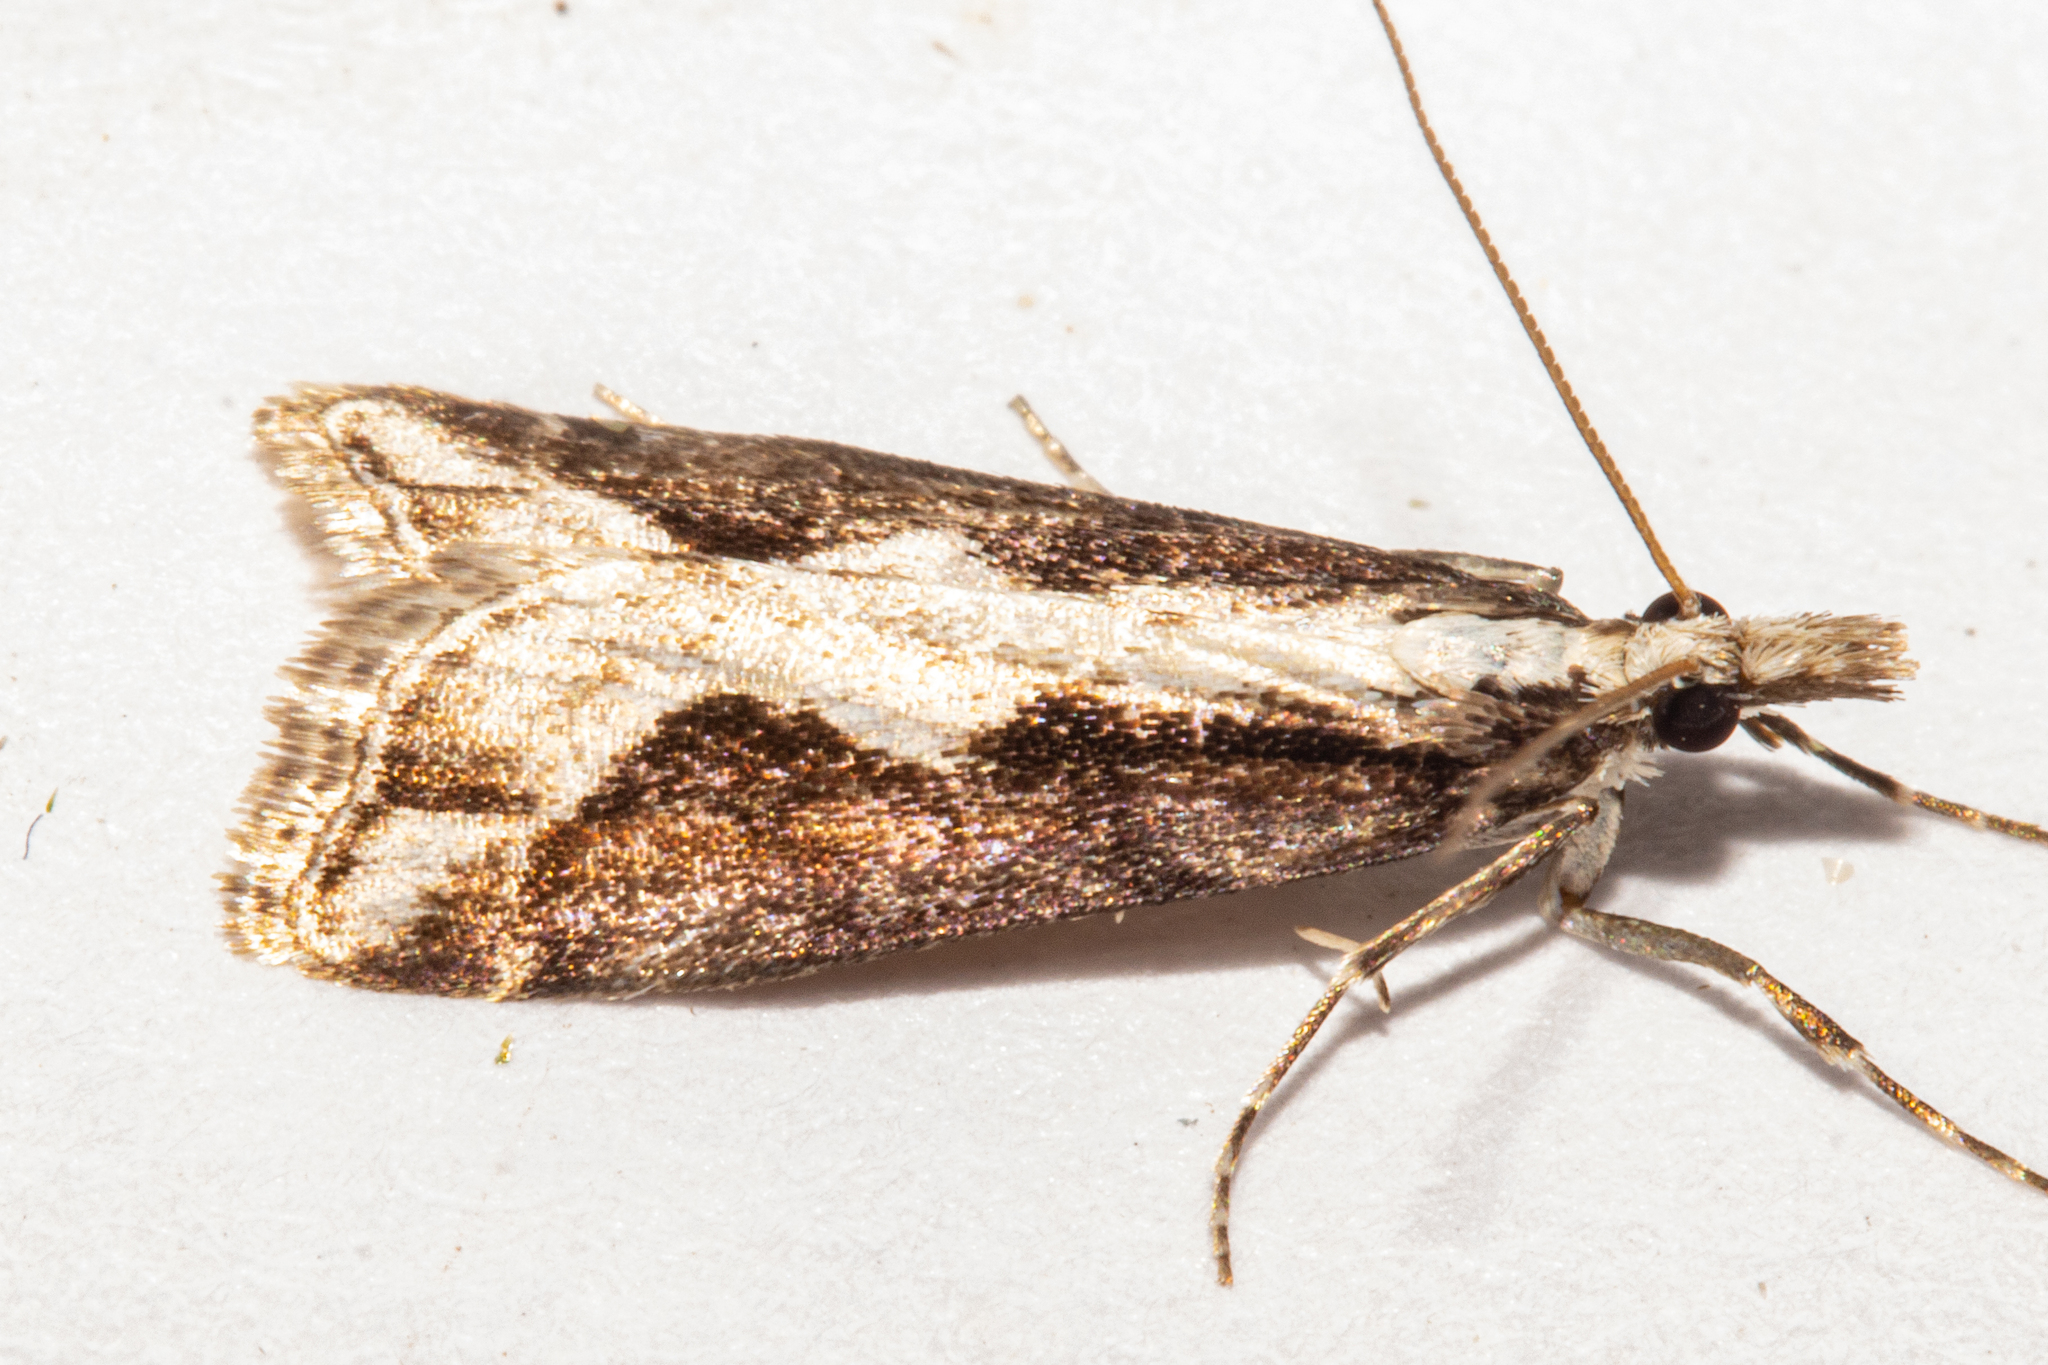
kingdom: Animalia
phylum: Arthropoda
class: Insecta
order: Lepidoptera
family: Crambidae
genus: Eudonia
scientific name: Eudonia steropaea
